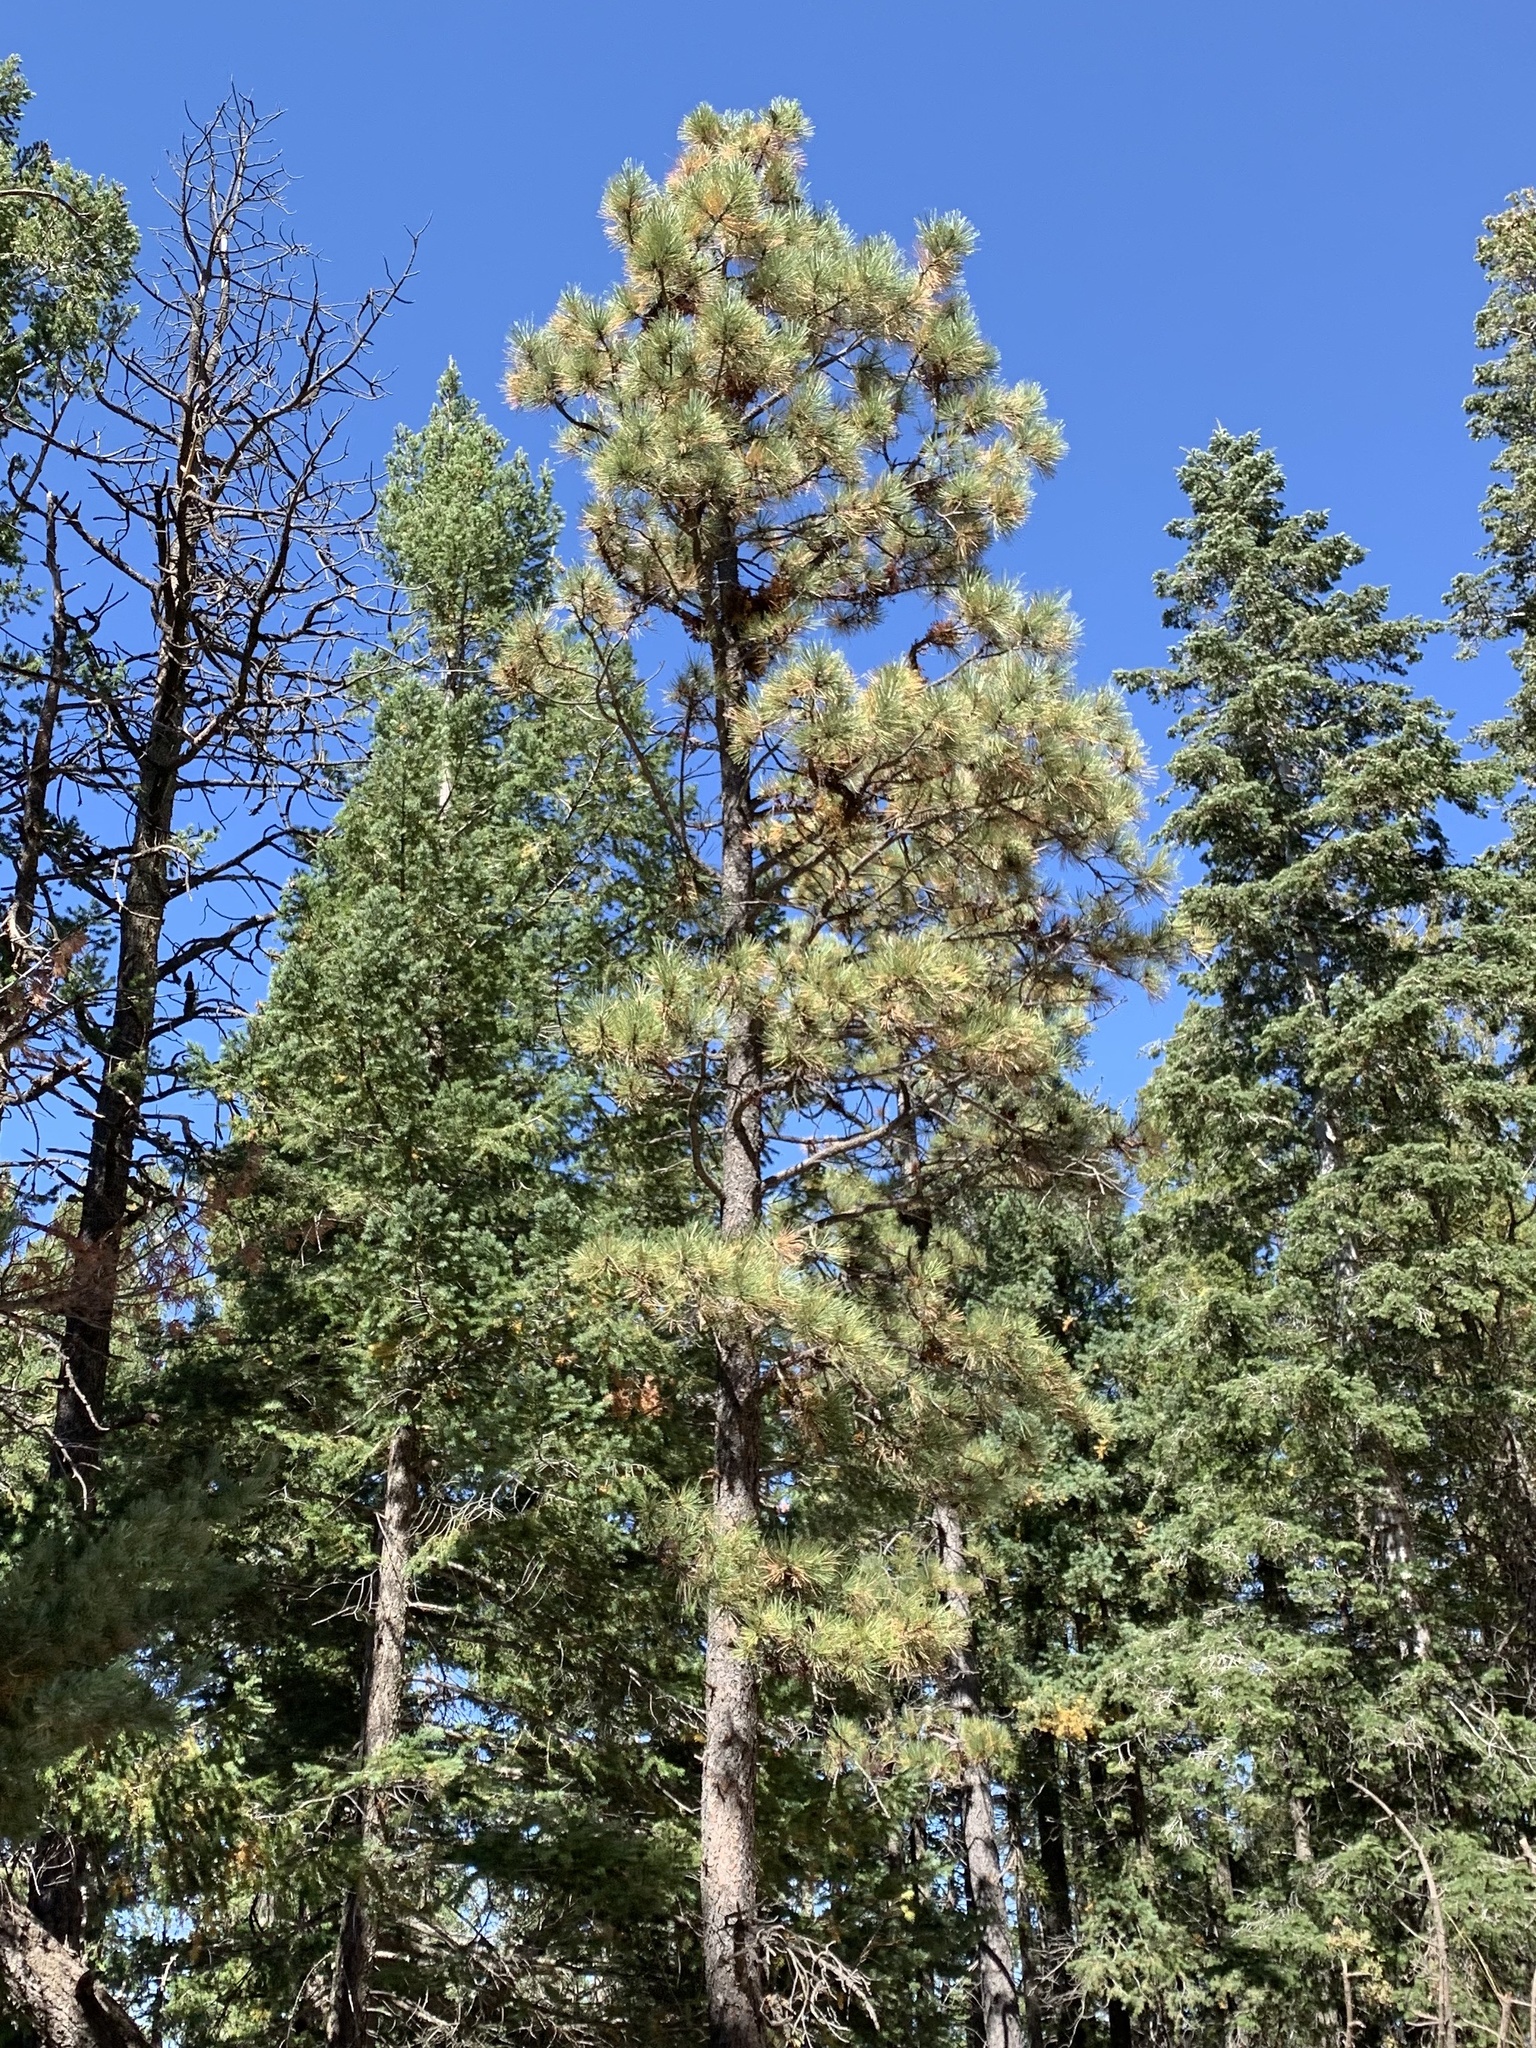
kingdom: Plantae
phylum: Tracheophyta
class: Pinopsida
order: Pinales
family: Pinaceae
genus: Pinus
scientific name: Pinus ponderosa
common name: Western yellow-pine
